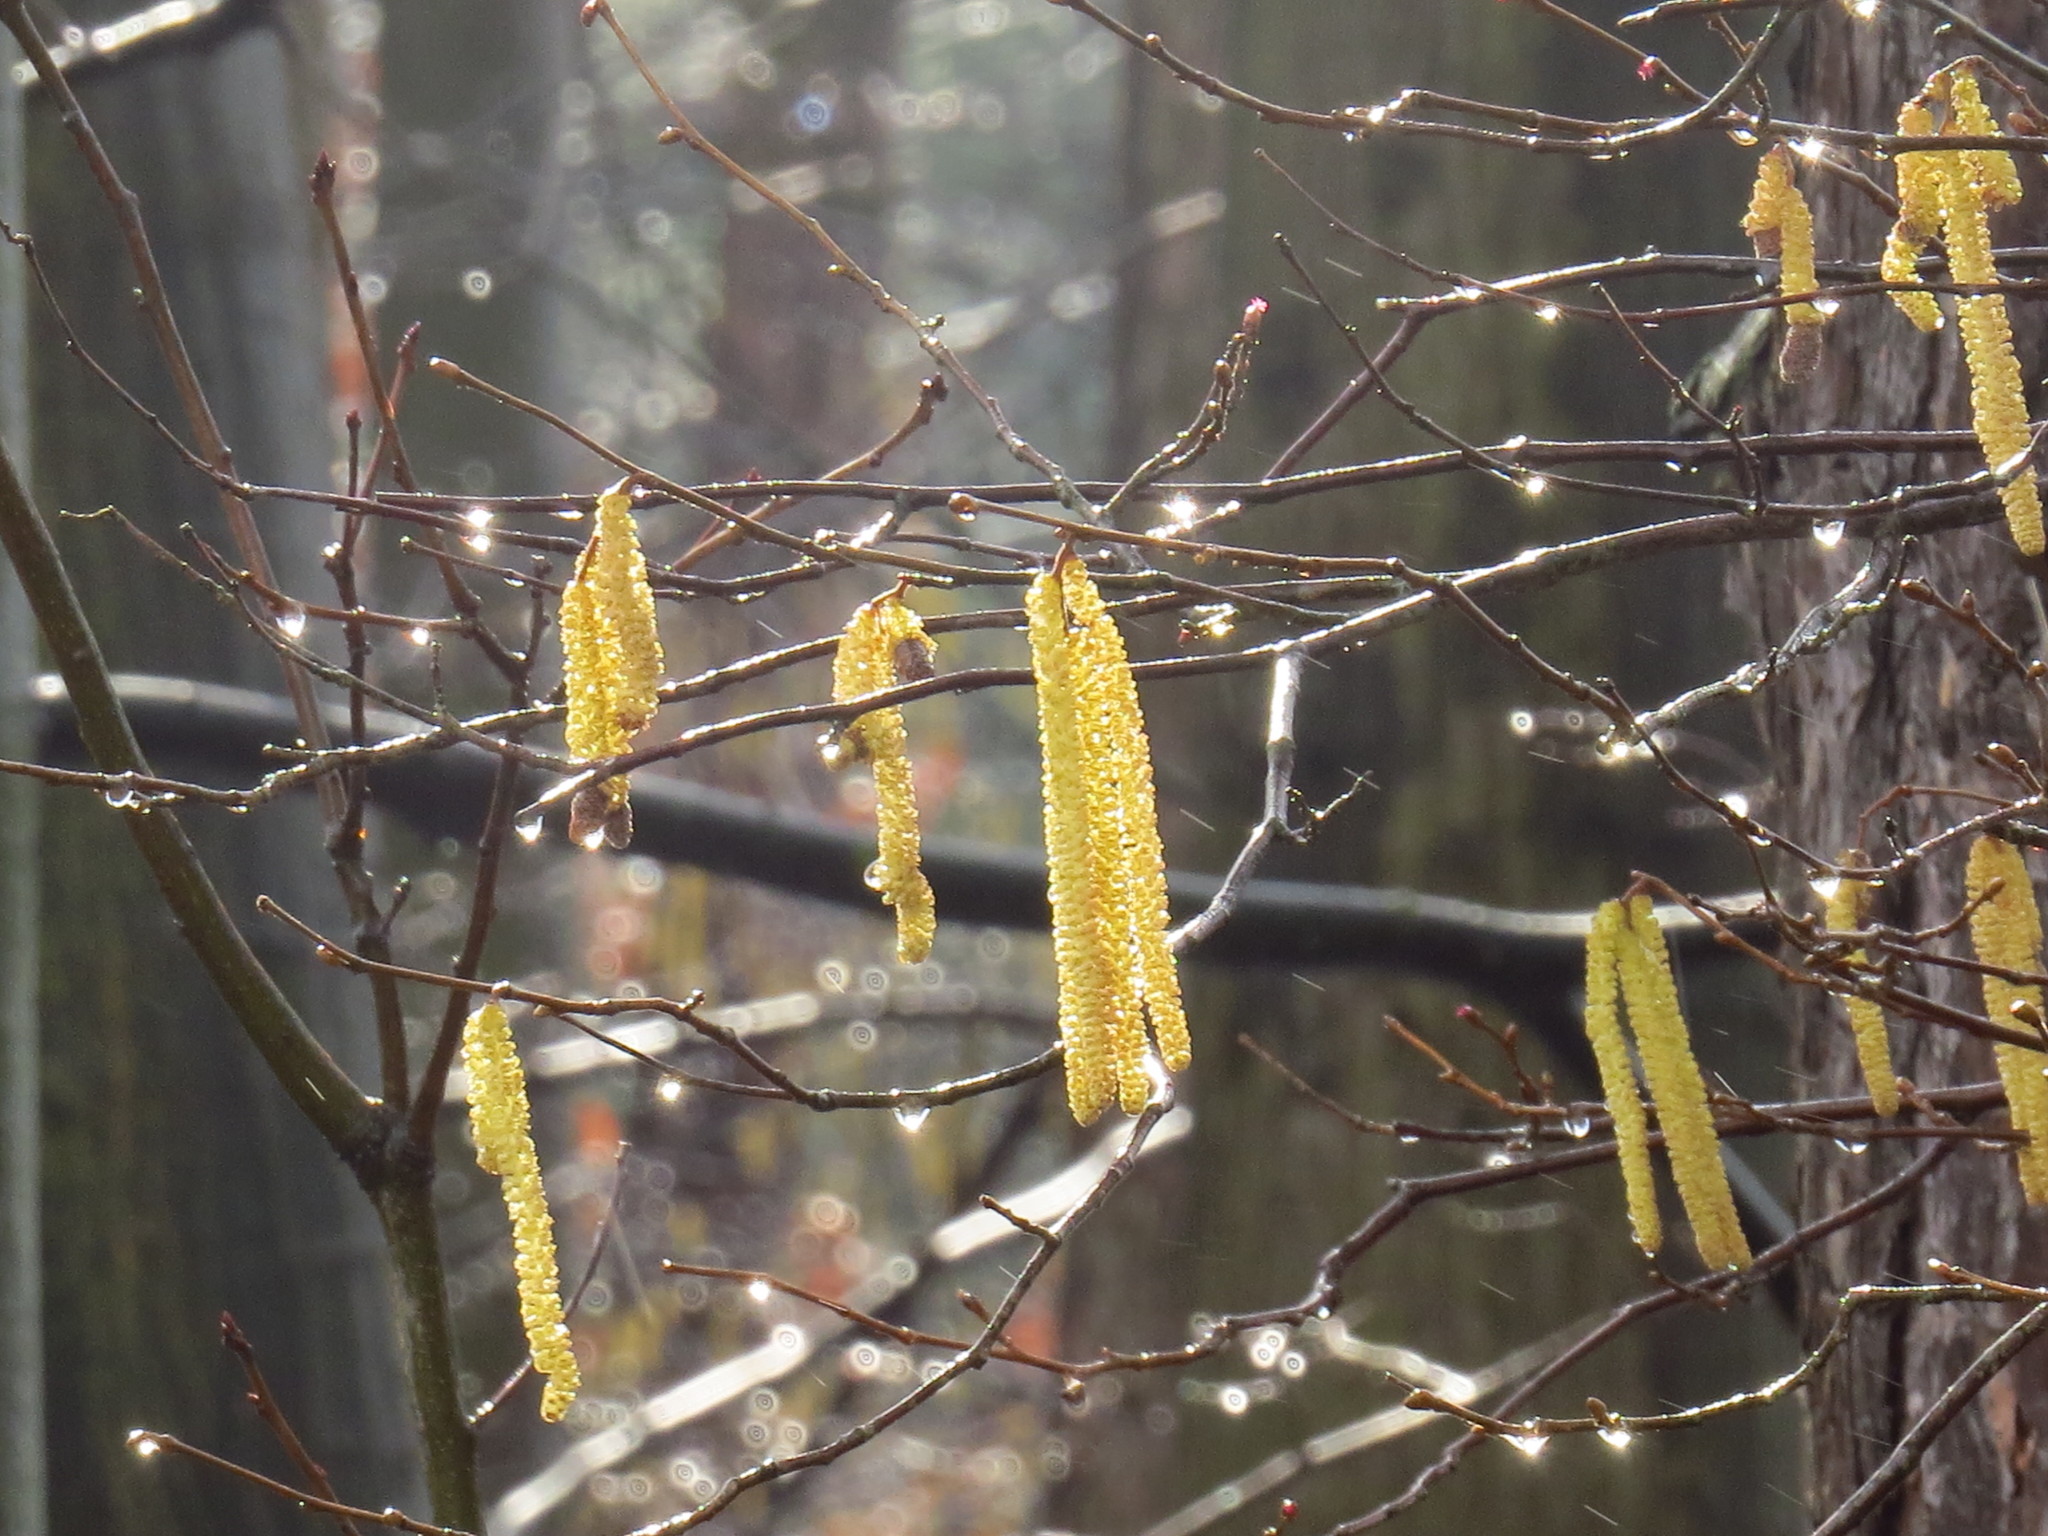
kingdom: Plantae
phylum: Tracheophyta
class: Magnoliopsida
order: Fagales
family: Betulaceae
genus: Corylus
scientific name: Corylus avellana
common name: European hazel
